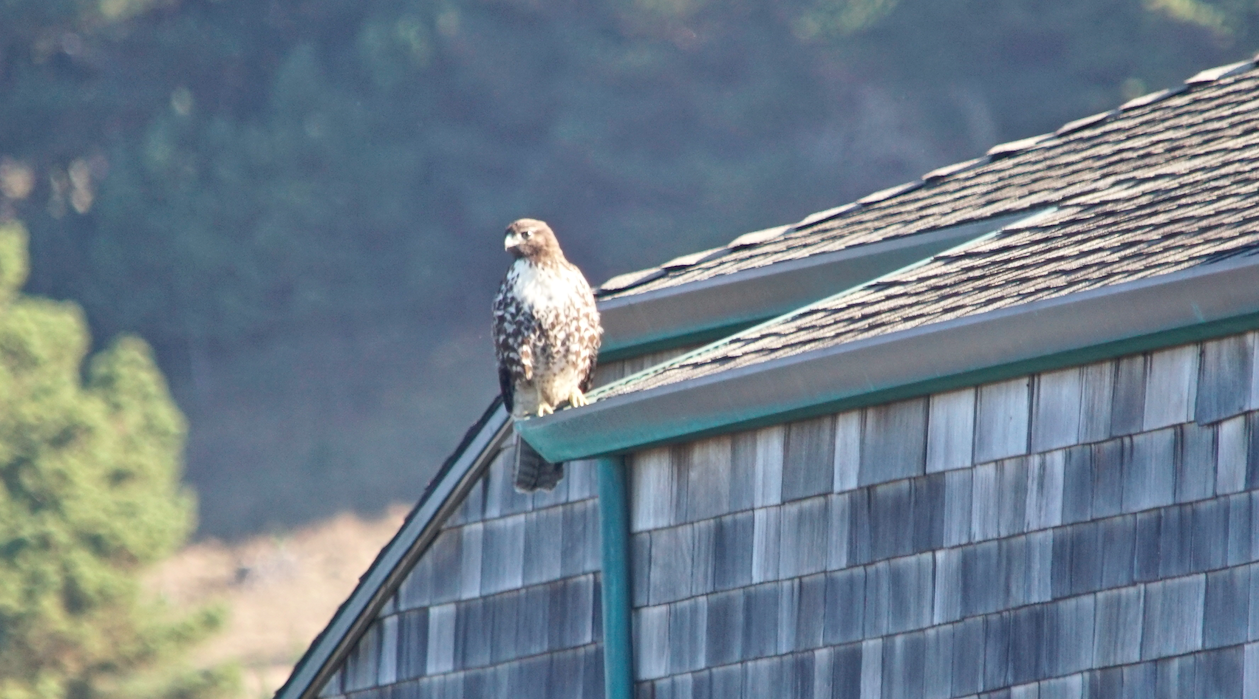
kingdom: Animalia
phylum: Chordata
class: Aves
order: Accipitriformes
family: Accipitridae
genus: Buteo
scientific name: Buteo jamaicensis
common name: Red-tailed hawk
